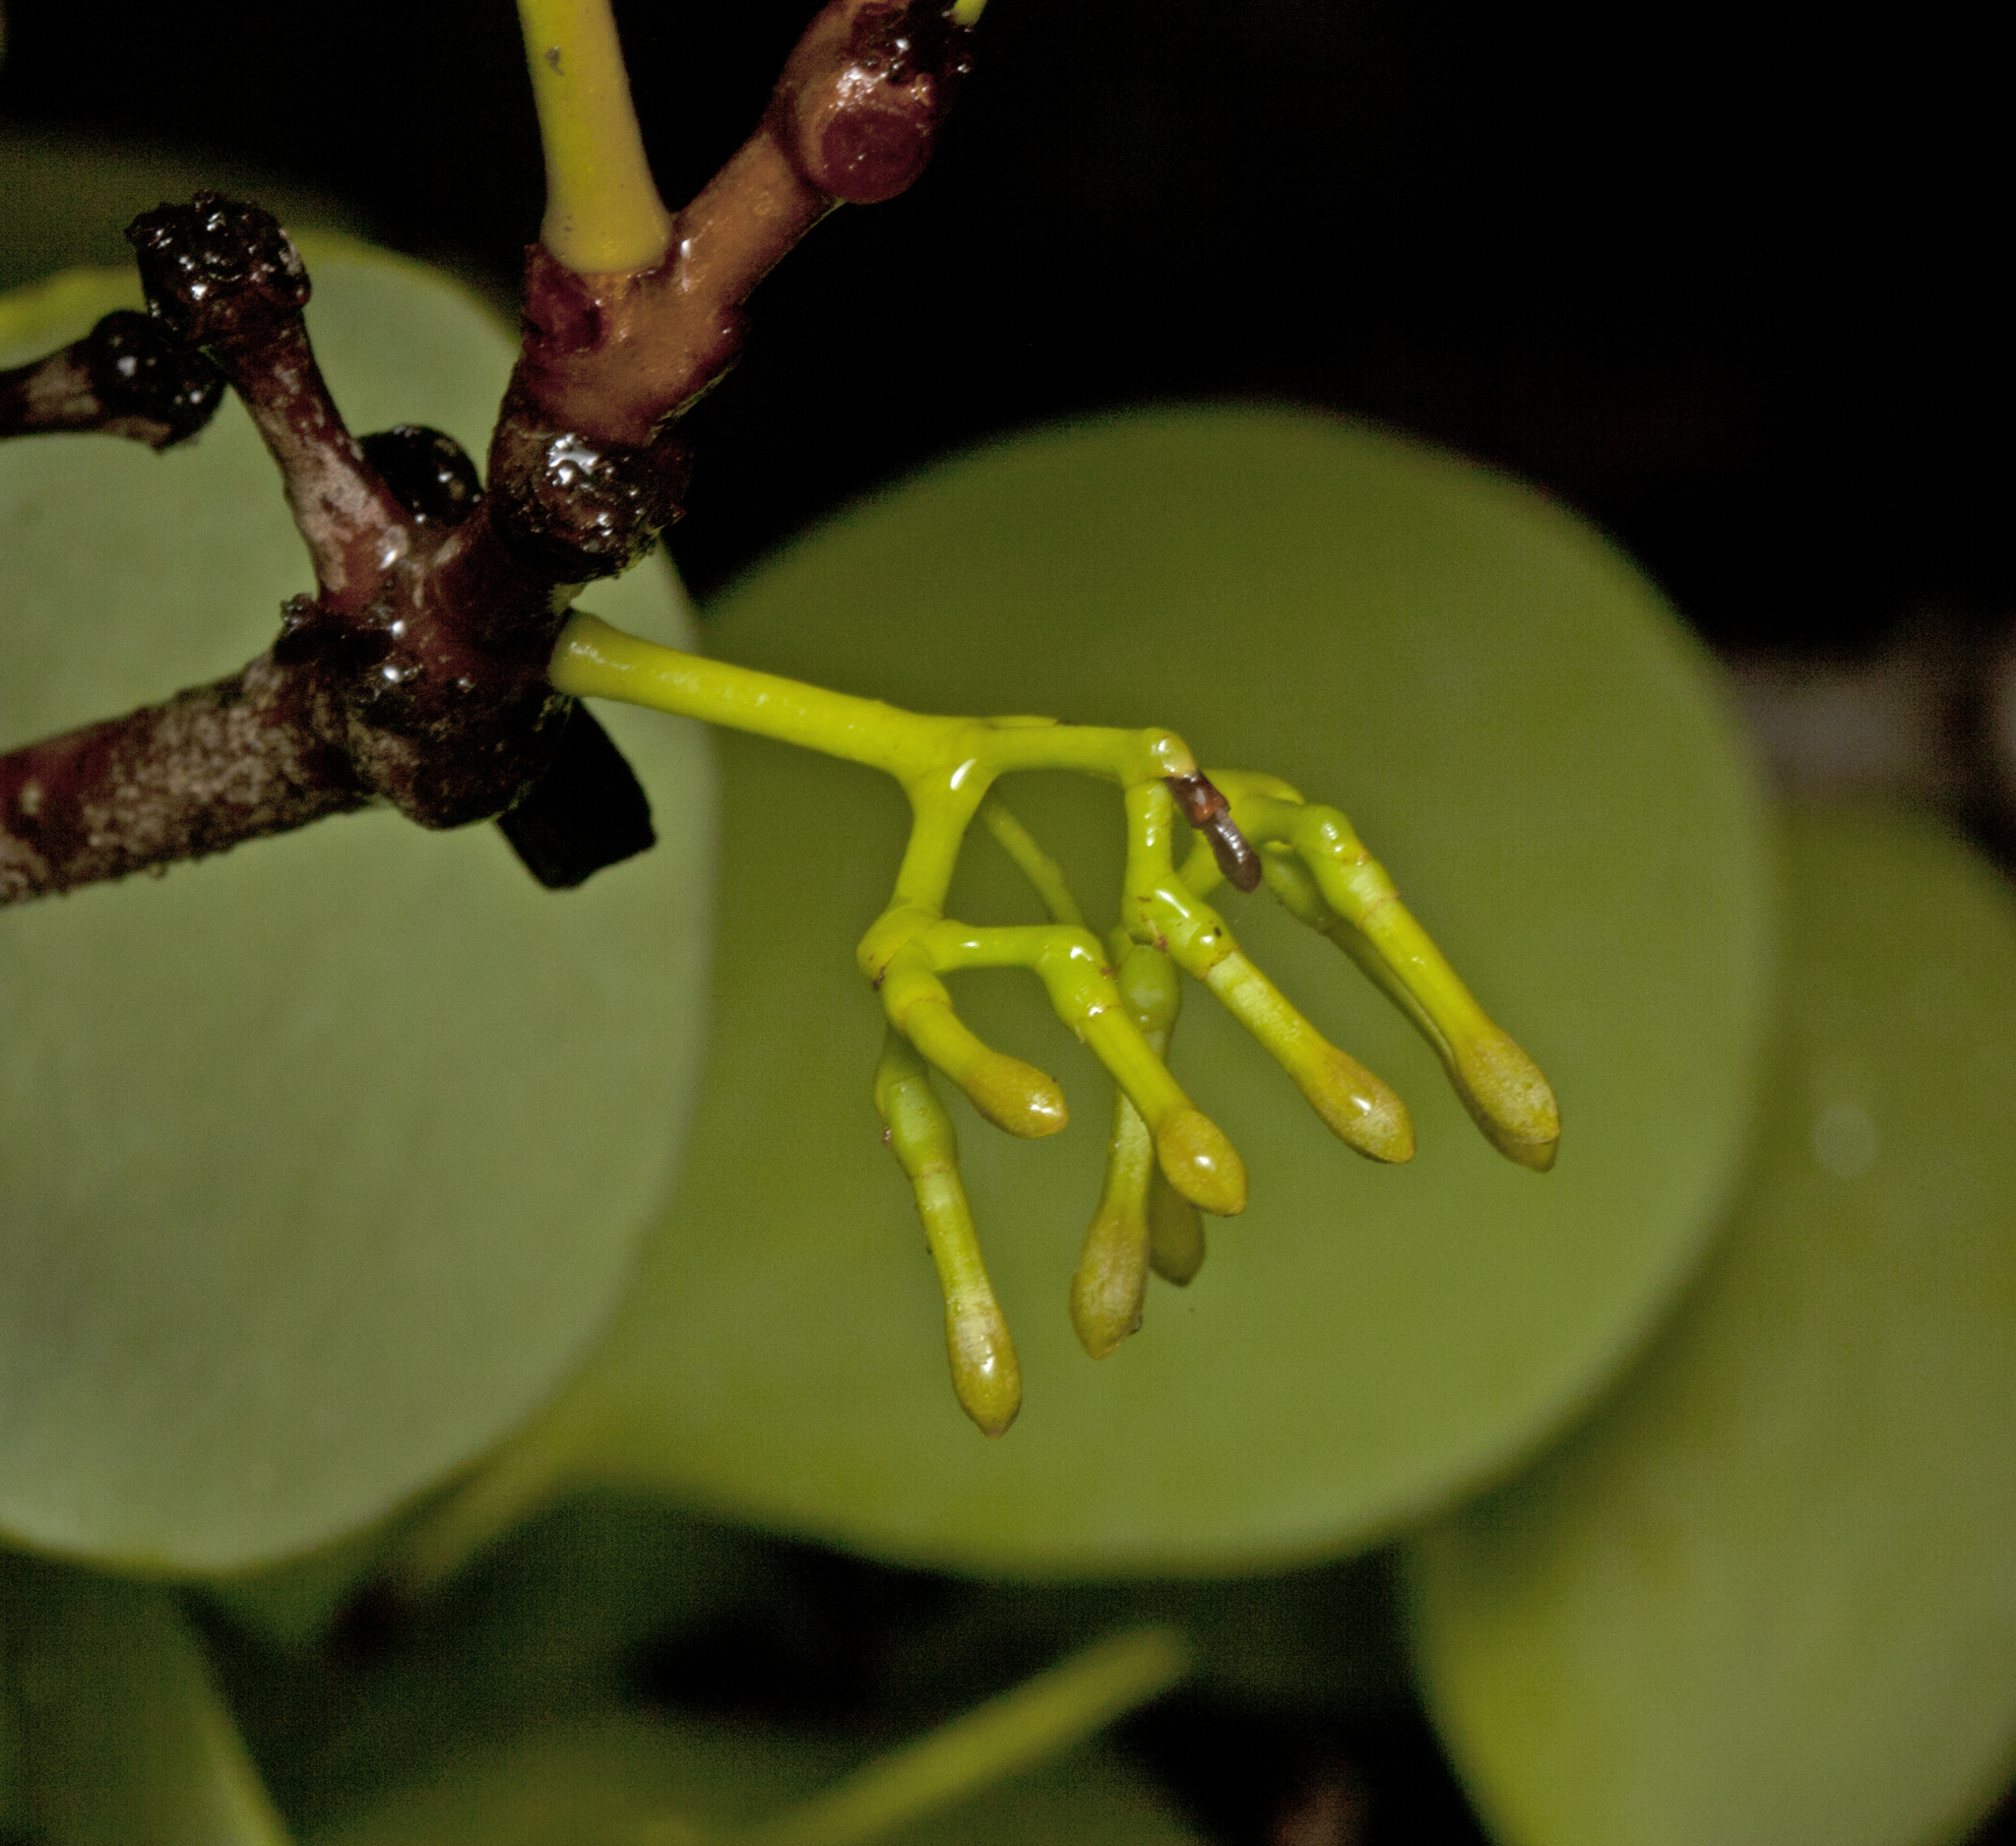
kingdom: Plantae
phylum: Tracheophyta
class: Magnoliopsida
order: Santalales
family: Loranthaceae
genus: Amyema
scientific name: Amyema mackayensis
